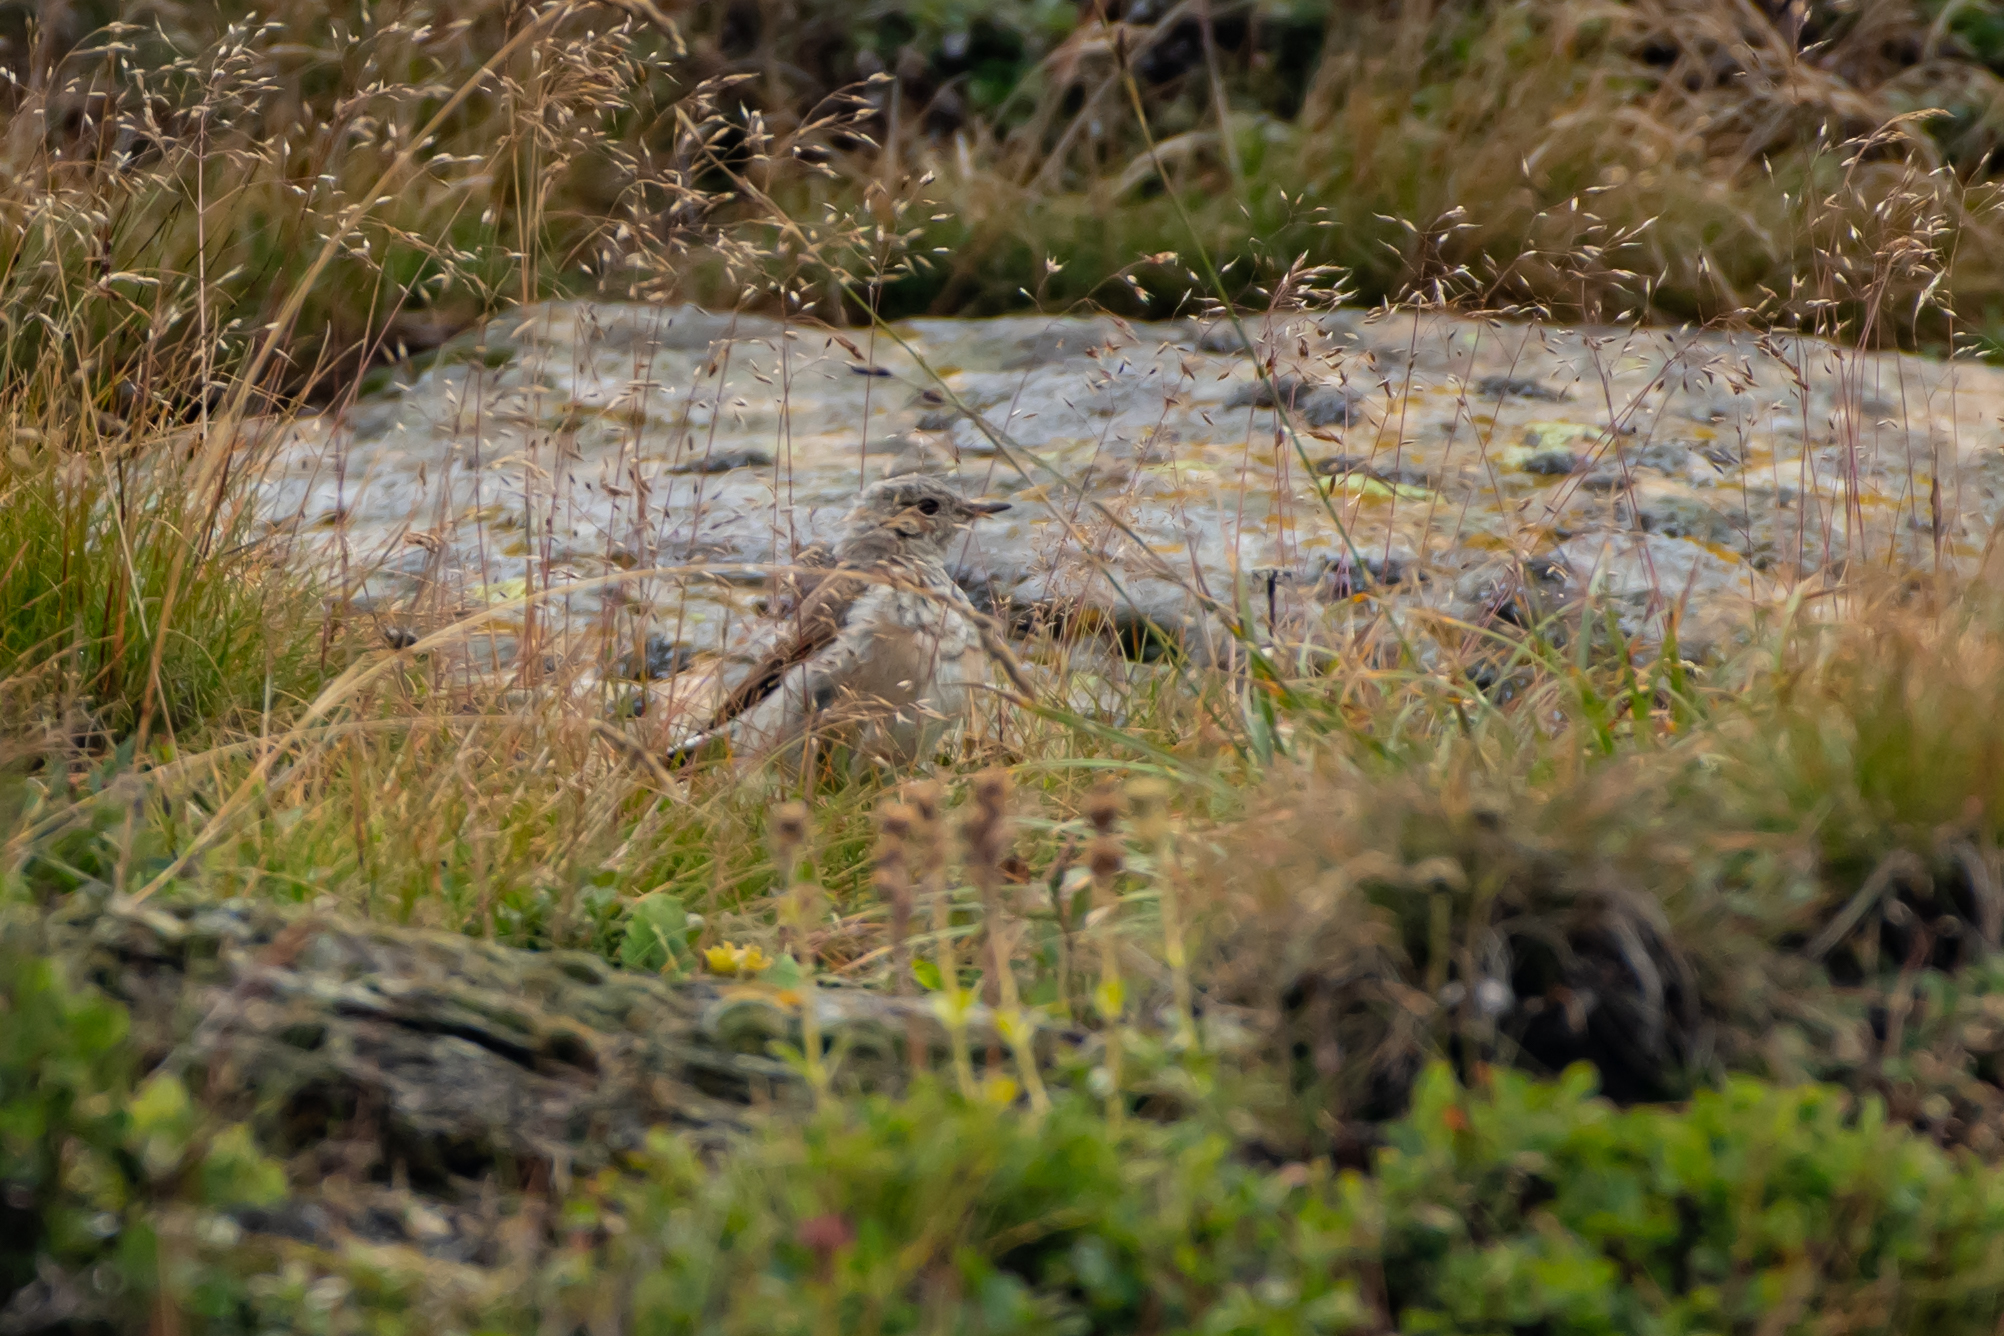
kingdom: Animalia
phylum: Chordata
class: Aves
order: Passeriformes
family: Muscicapidae
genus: Oenanthe
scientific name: Oenanthe oenanthe
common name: Northern wheatear
